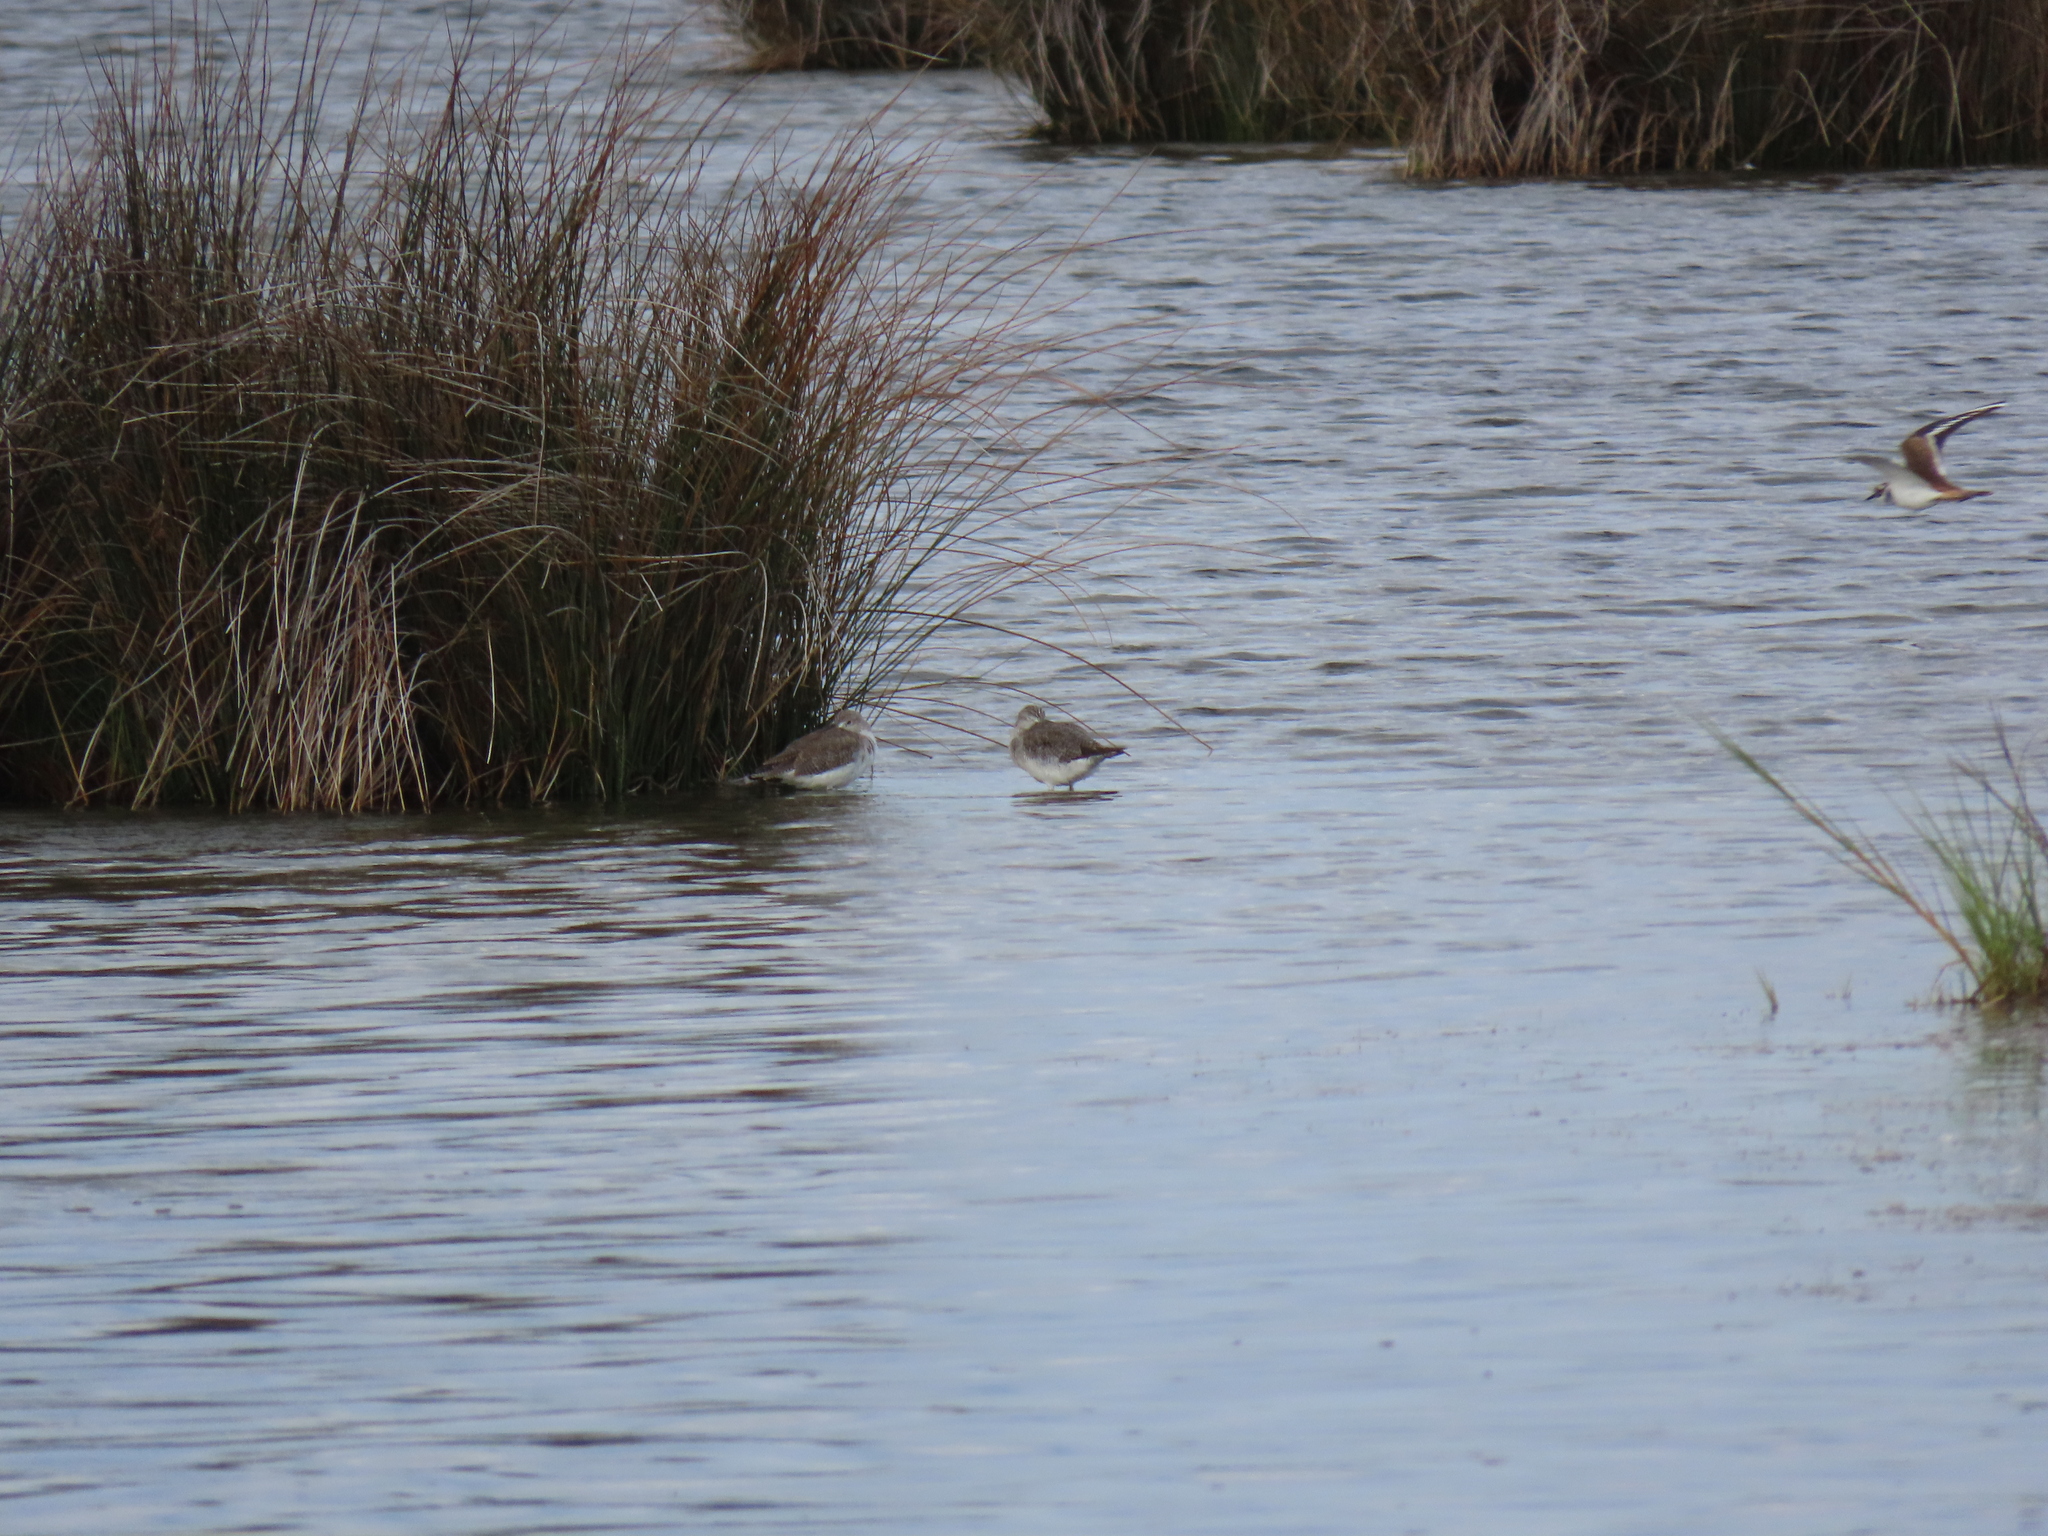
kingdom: Animalia
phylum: Chordata
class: Aves
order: Charadriiformes
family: Scolopacidae
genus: Tringa
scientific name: Tringa melanoleuca
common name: Greater yellowlegs
